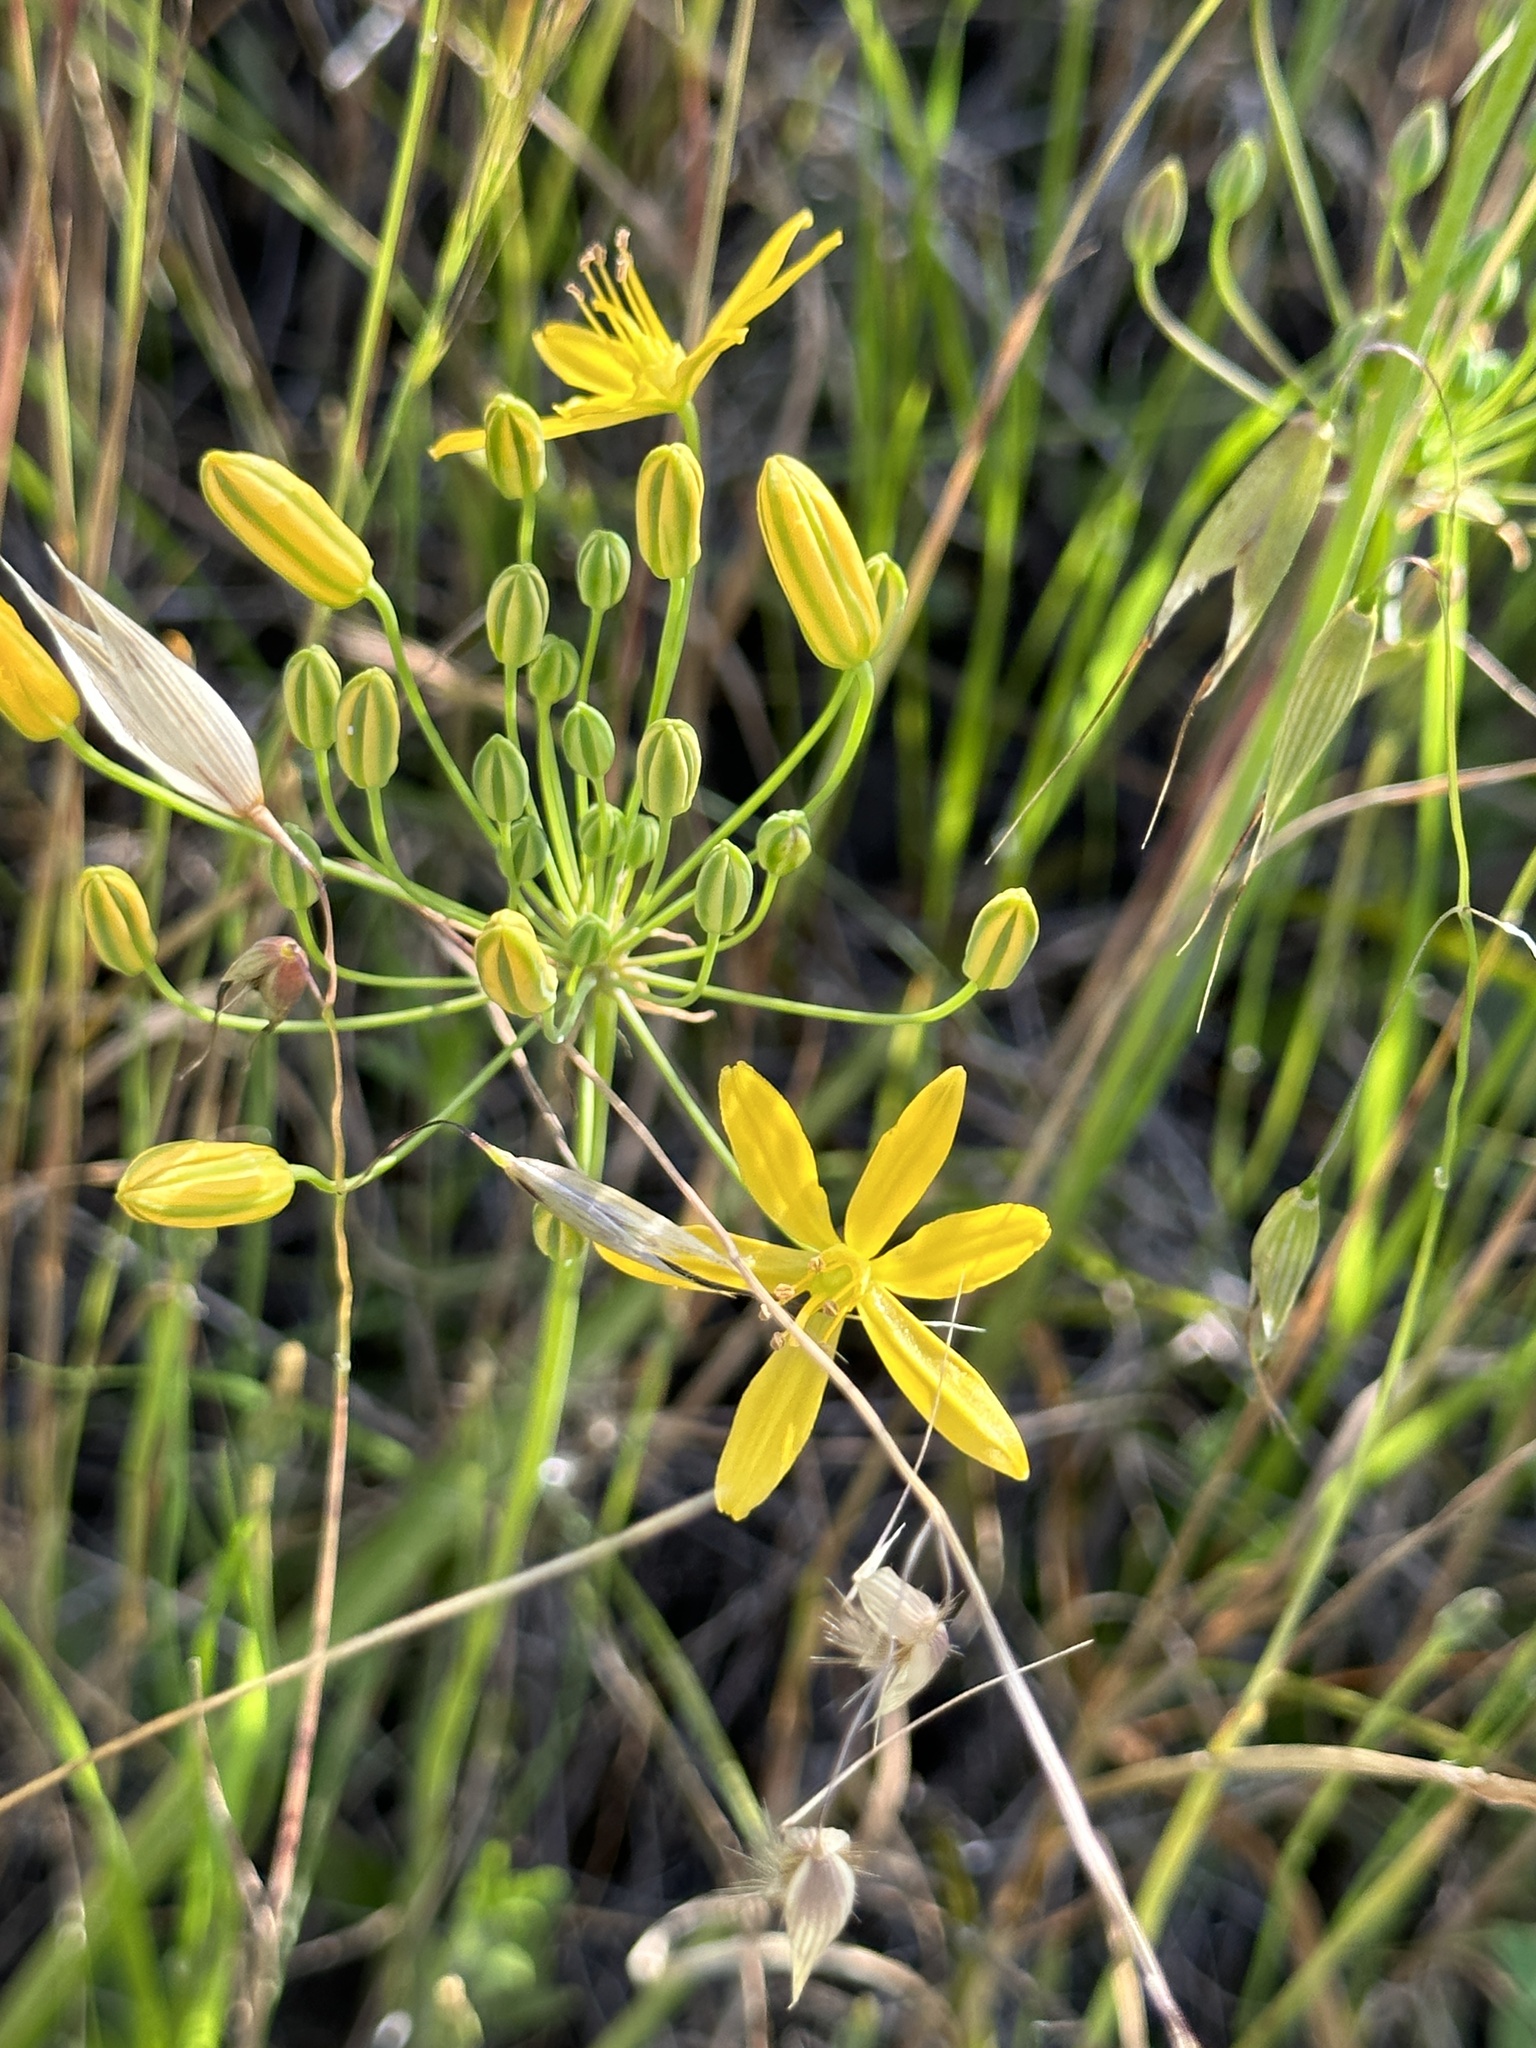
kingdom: Plantae
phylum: Tracheophyta
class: Liliopsida
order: Asparagales
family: Asparagaceae
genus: Bloomeria
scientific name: Bloomeria crocea
